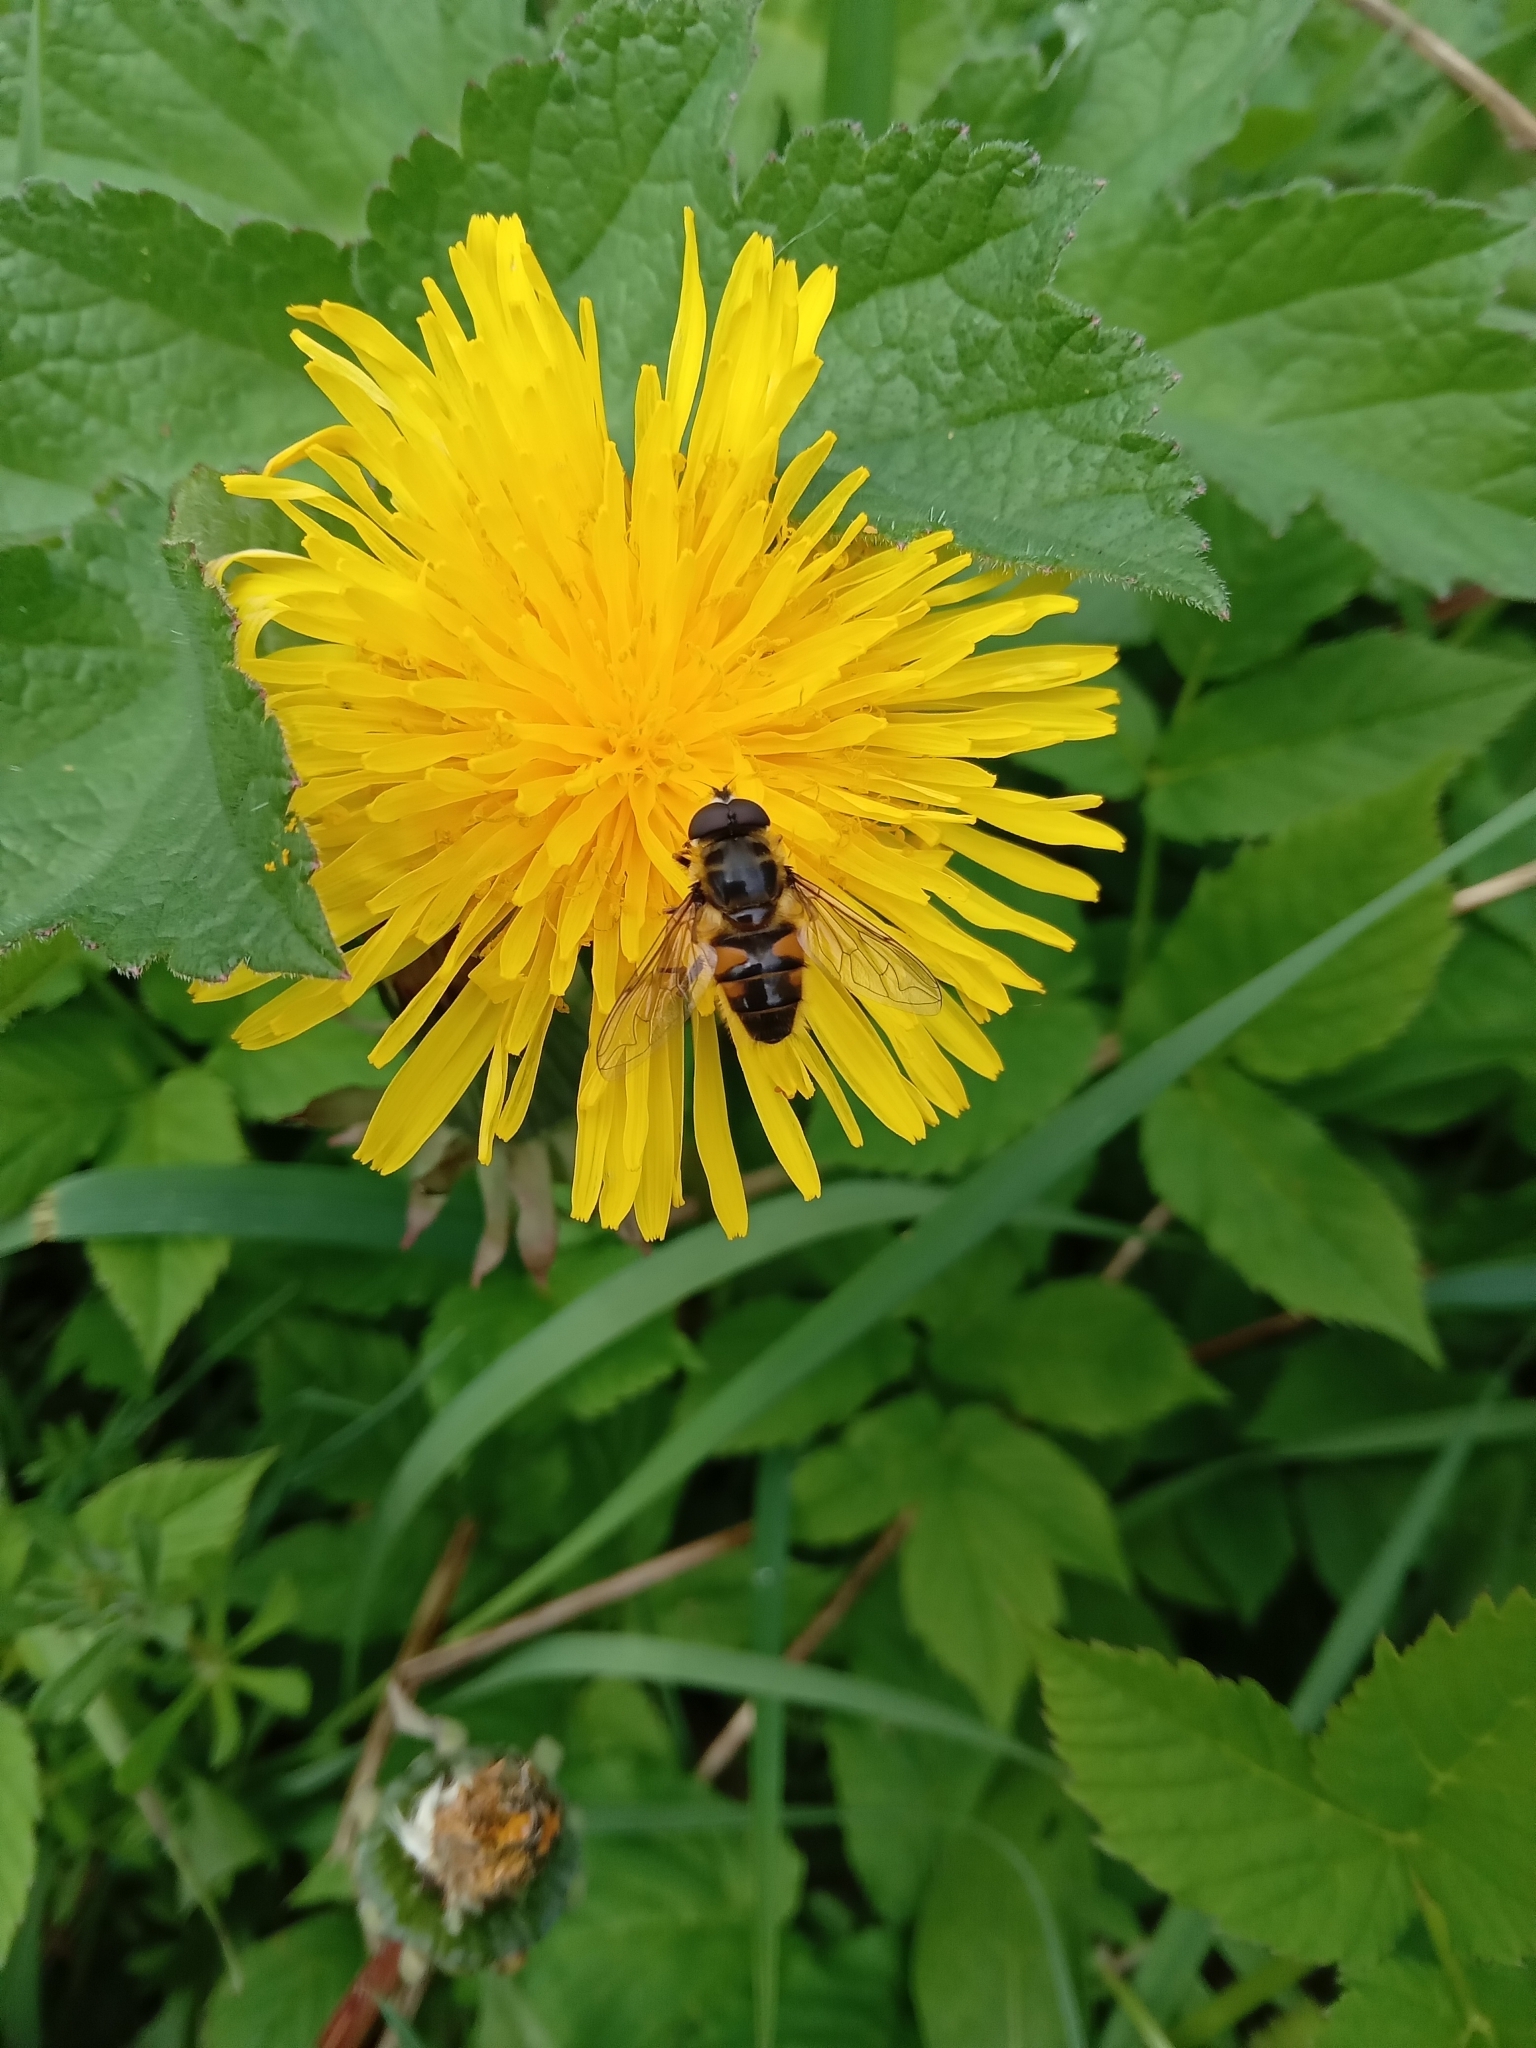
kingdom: Animalia
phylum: Arthropoda
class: Insecta
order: Diptera
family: Syrphidae
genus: Myathropa
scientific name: Myathropa florea
